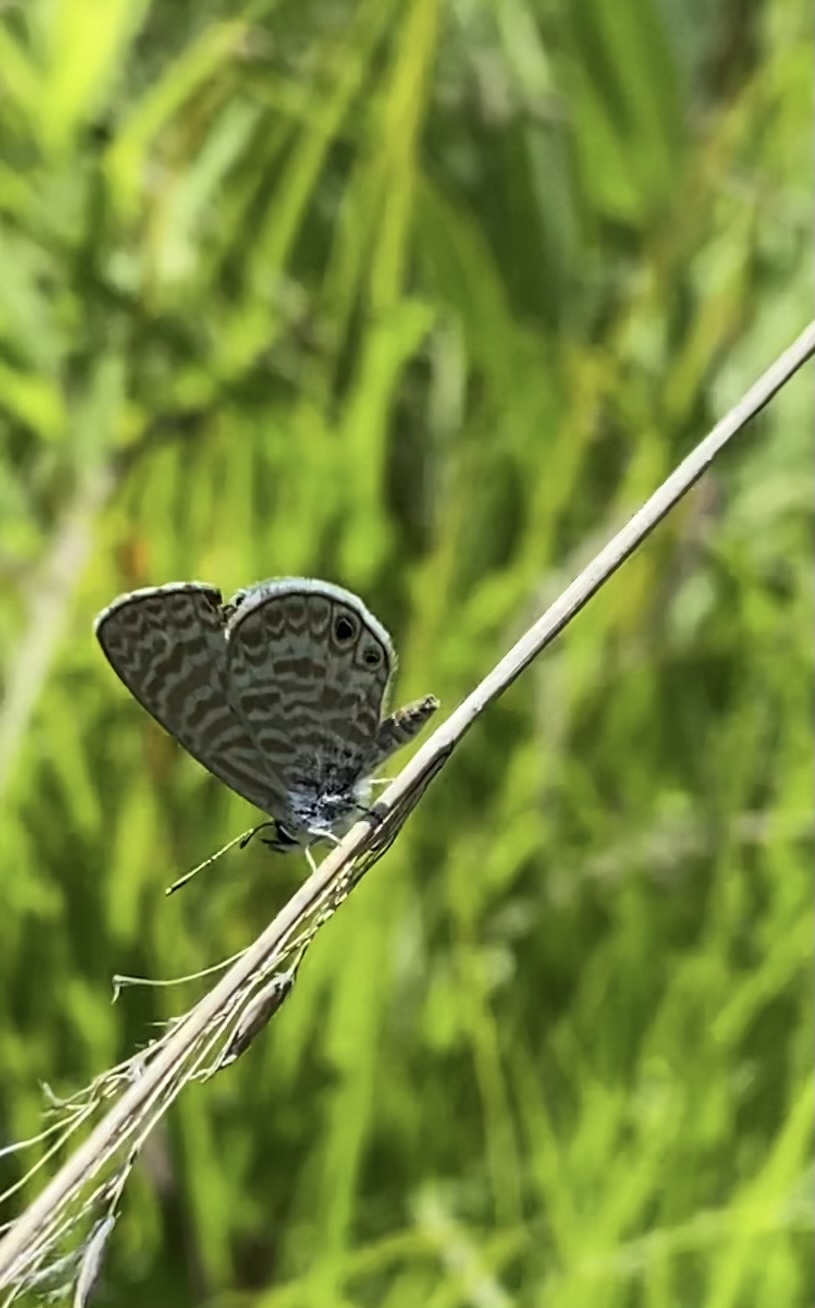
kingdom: Animalia
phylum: Arthropoda
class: Insecta
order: Lepidoptera
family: Lycaenidae
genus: Leptotes
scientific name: Leptotes marina
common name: Marine blue
